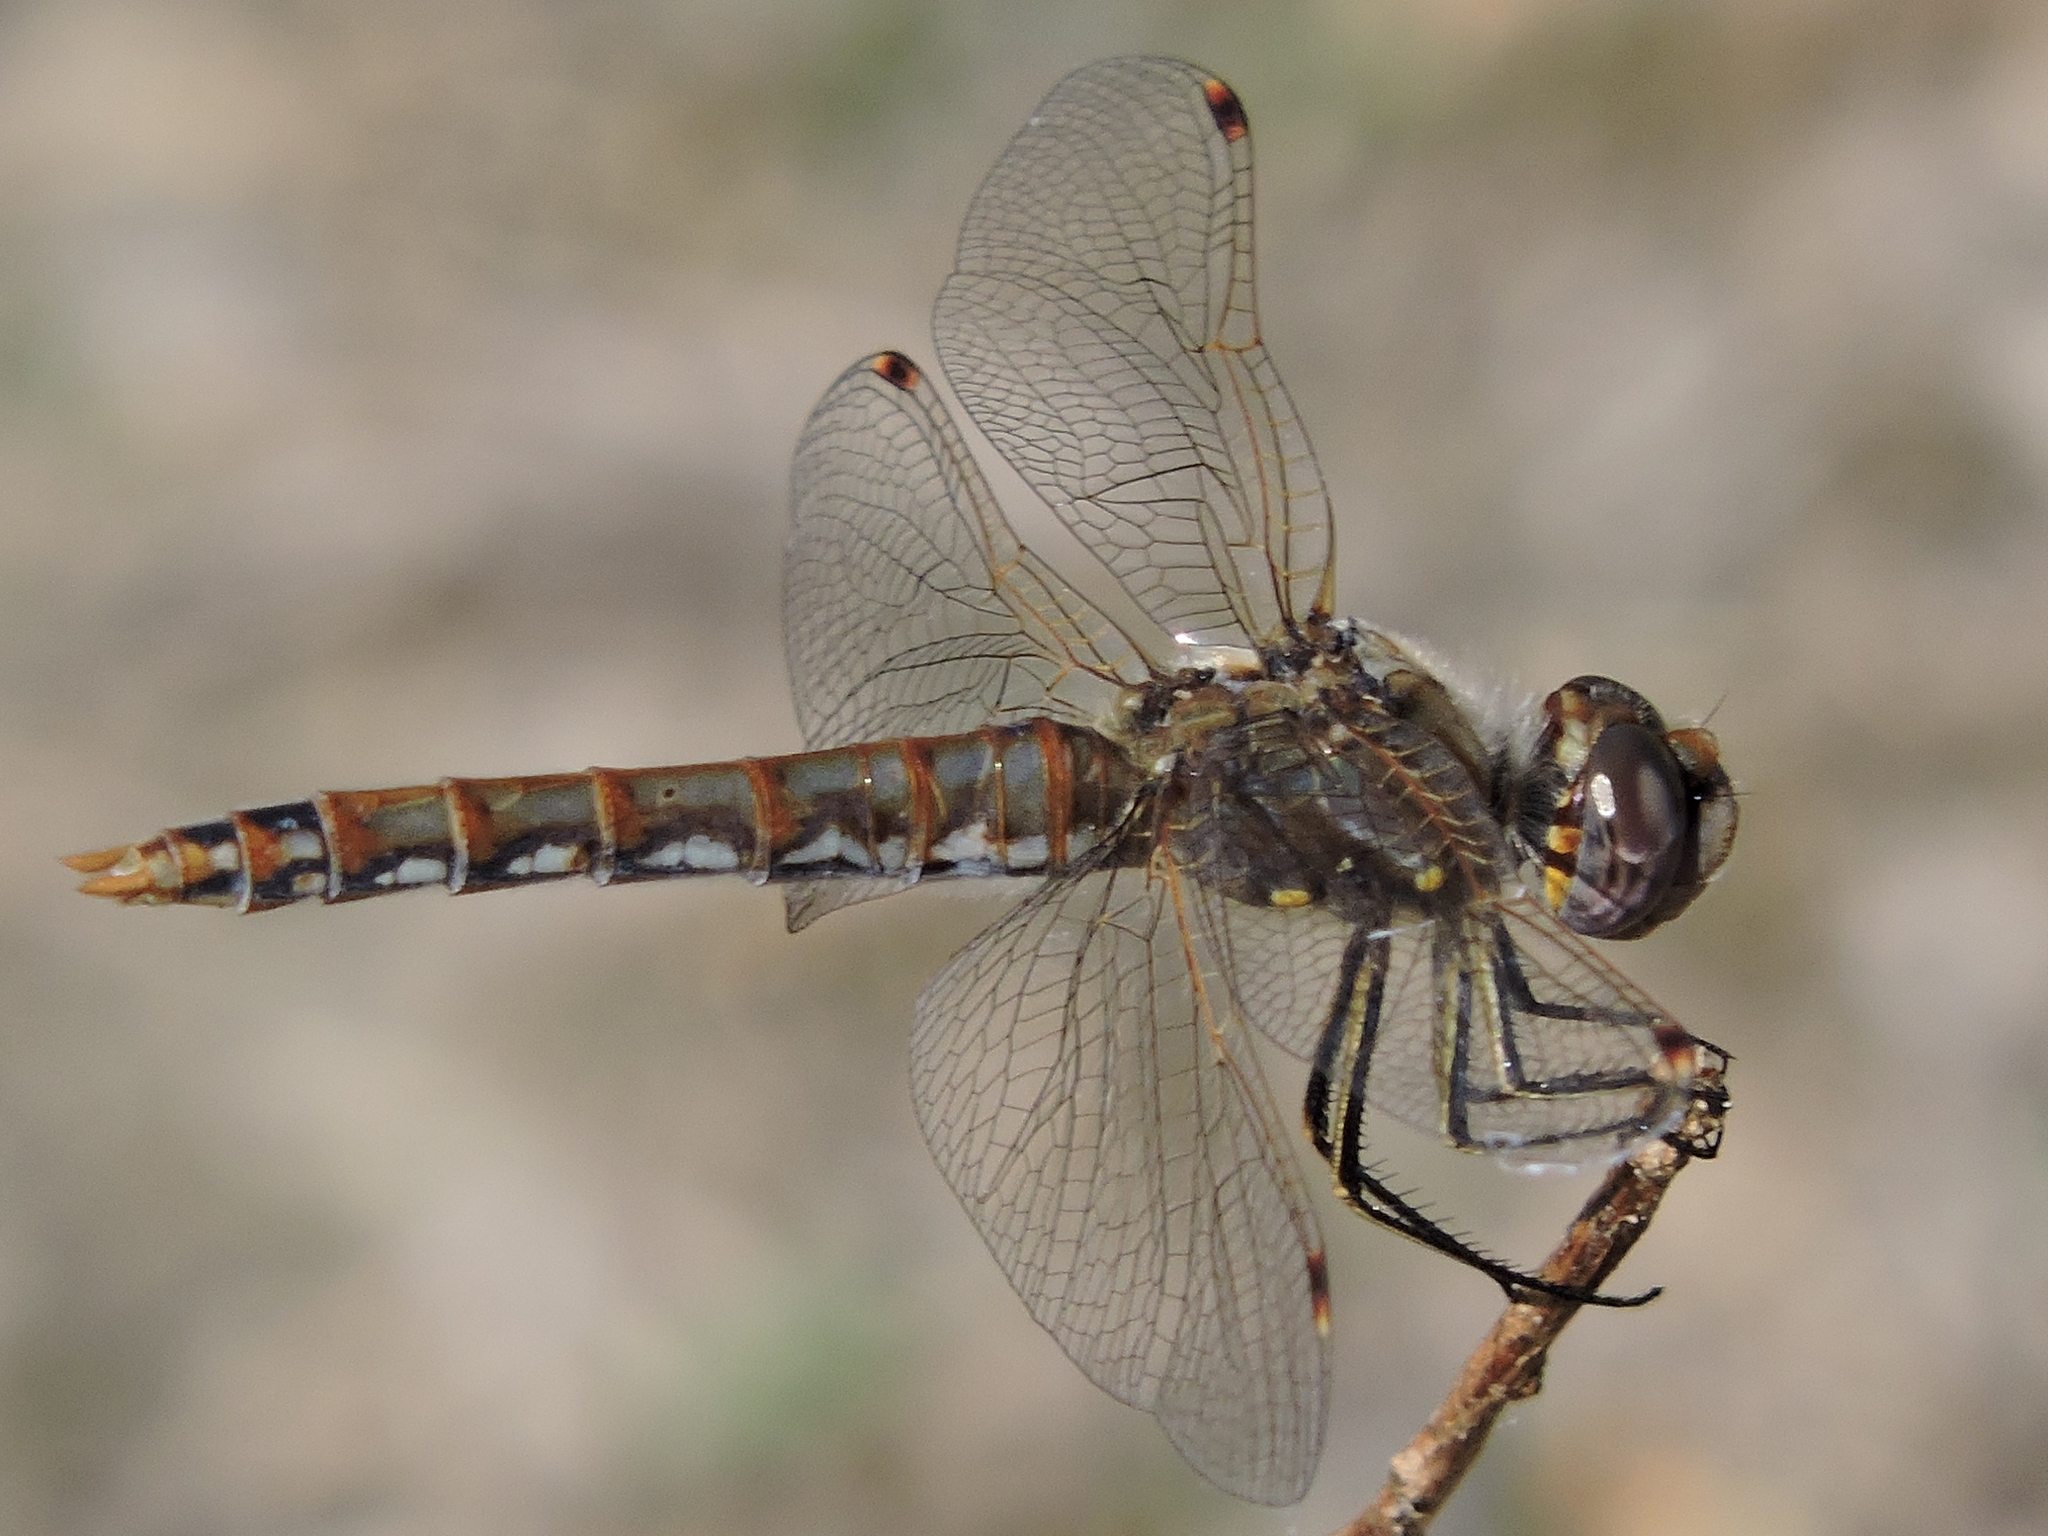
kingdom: Animalia
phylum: Arthropoda
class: Insecta
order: Odonata
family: Libellulidae
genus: Sympetrum
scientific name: Sympetrum corruptum
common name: Variegated meadowhawk
